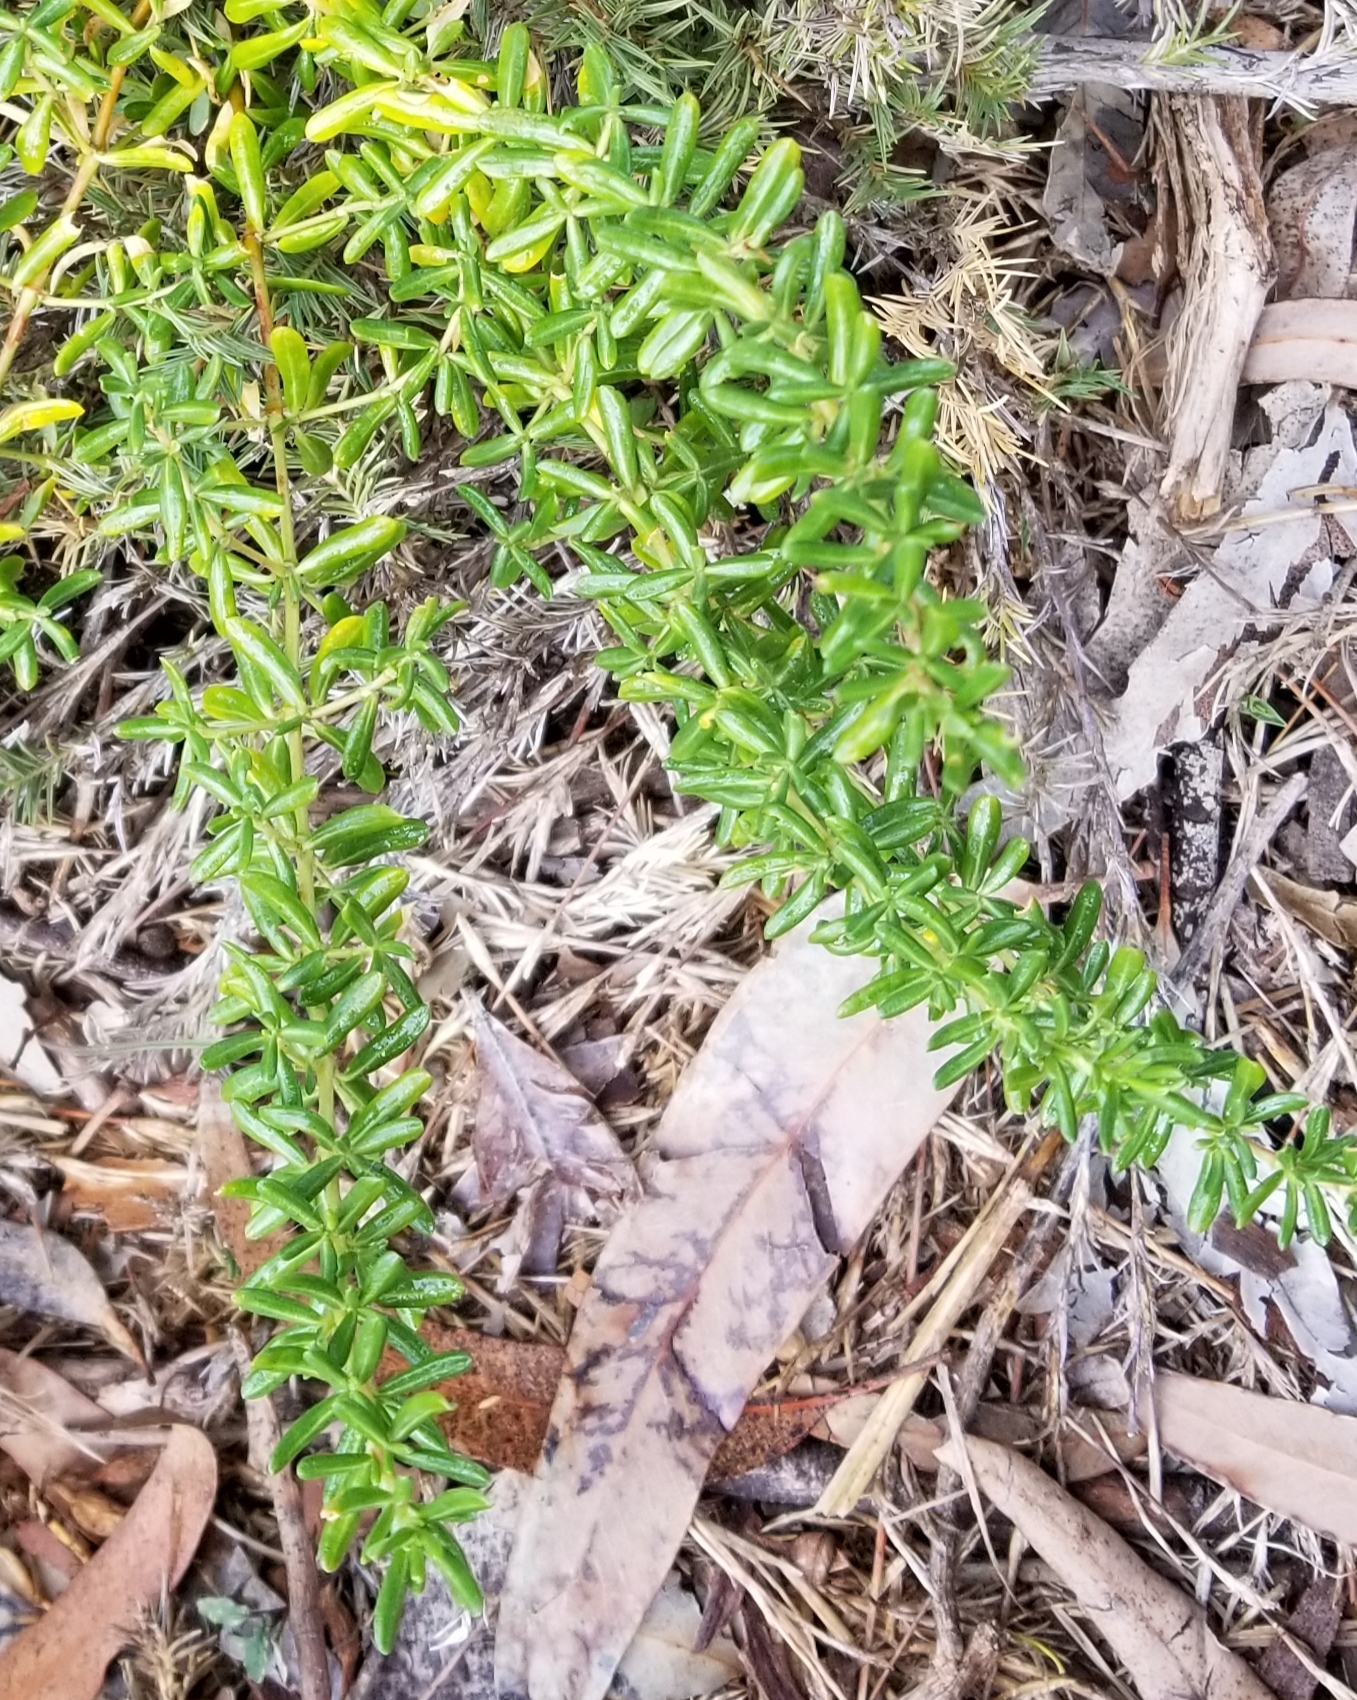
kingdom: Plantae
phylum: Tracheophyta
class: Magnoliopsida
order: Caryophyllales
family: Frankeniaceae
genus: Frankenia
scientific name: Frankenia salina
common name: Alkali seaheath
